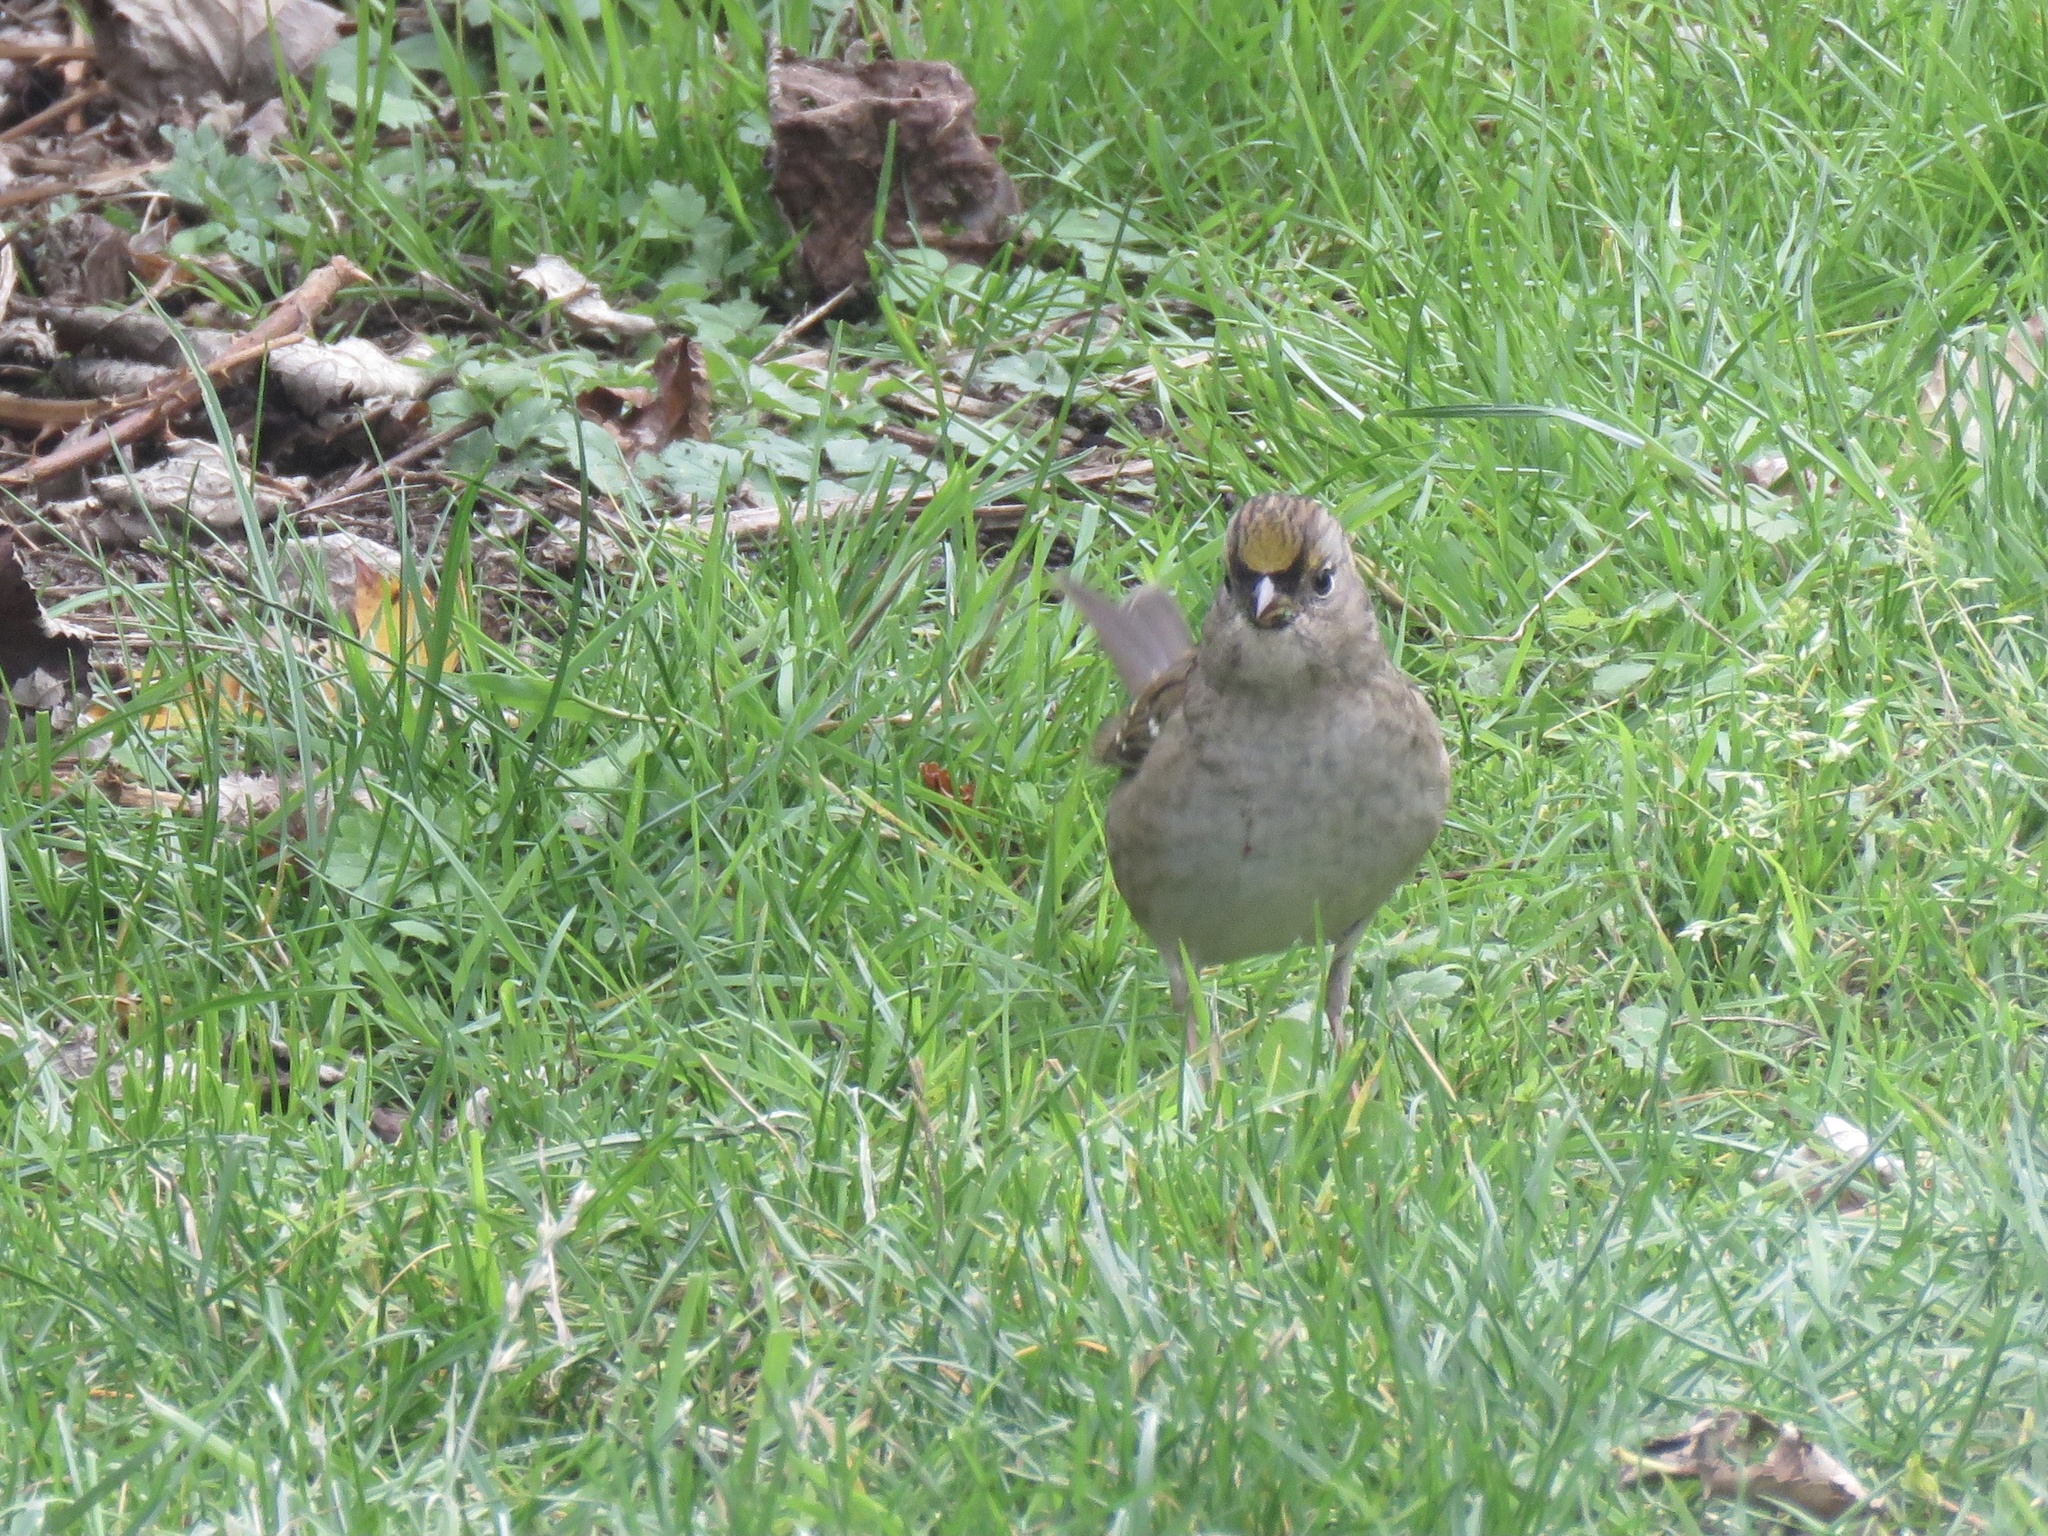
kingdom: Animalia
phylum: Chordata
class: Aves
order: Passeriformes
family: Passerellidae
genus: Zonotrichia
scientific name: Zonotrichia atricapilla
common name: Golden-crowned sparrow
